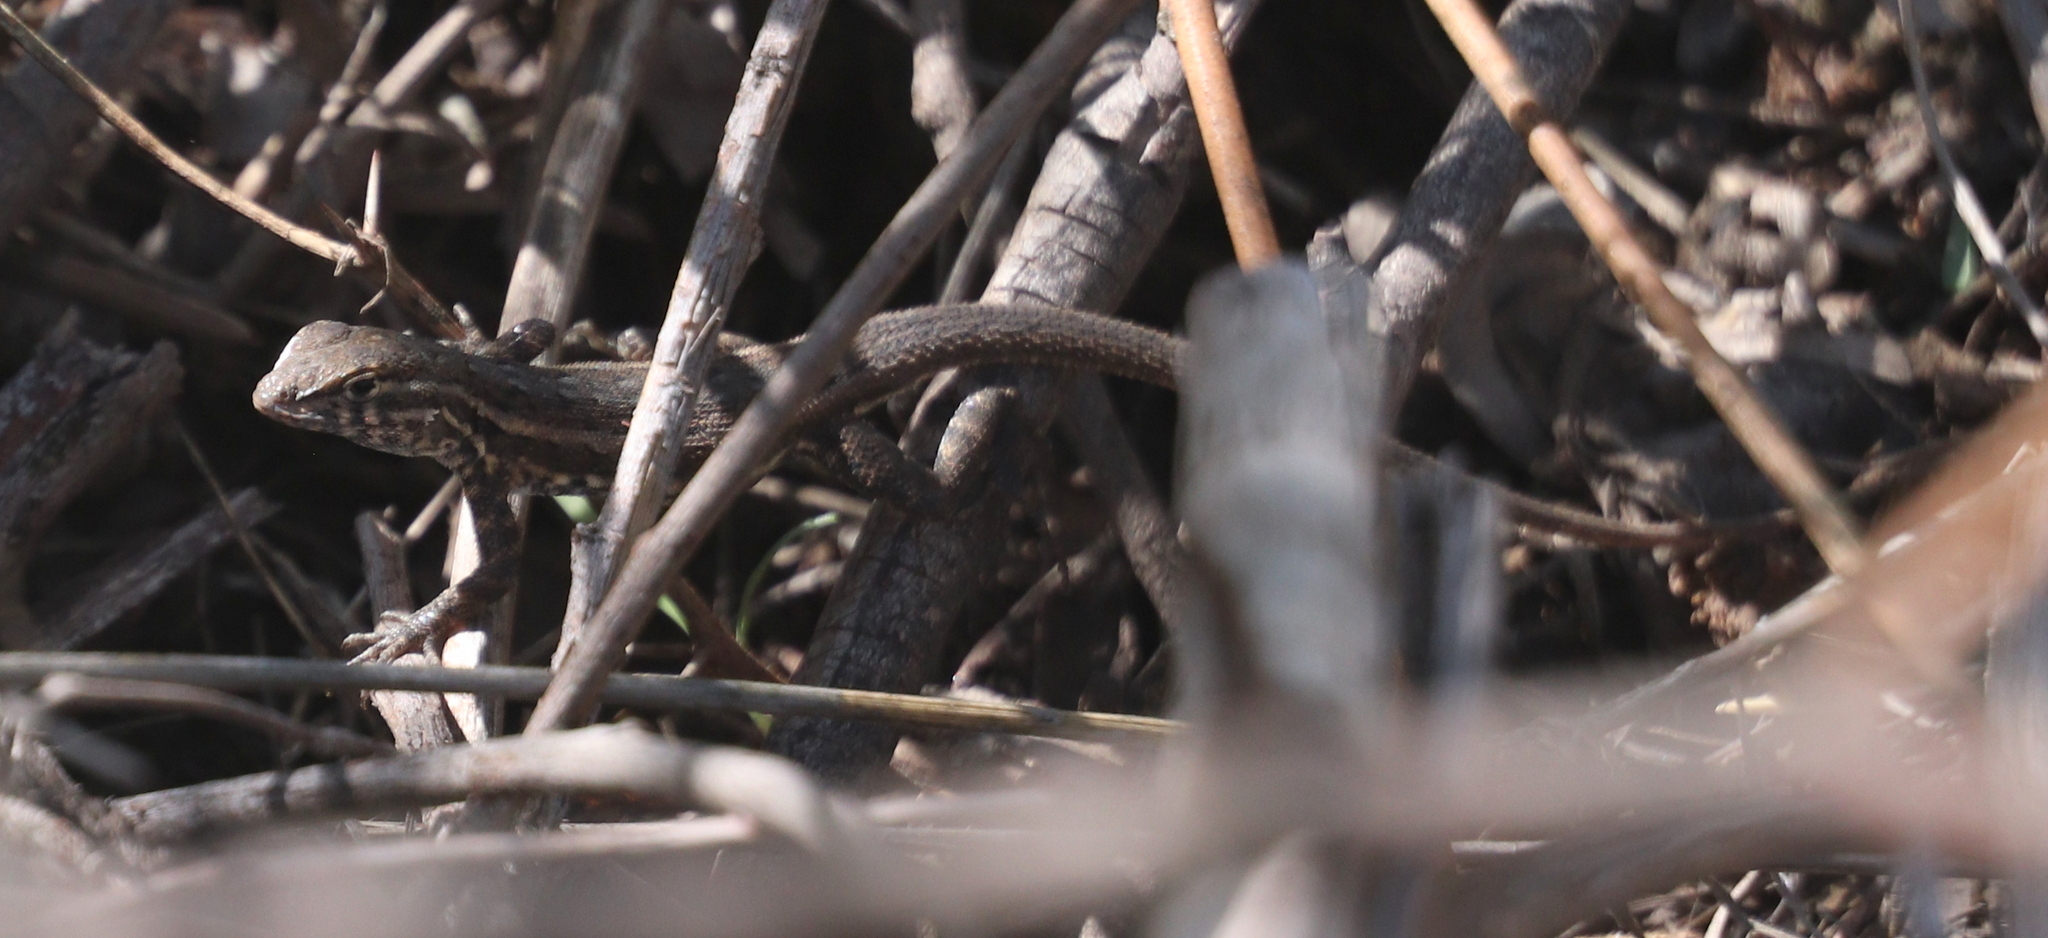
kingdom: Animalia
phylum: Chordata
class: Squamata
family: Phrynosomatidae
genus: Uta
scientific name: Uta stansburiana
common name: Side-blotched lizard
